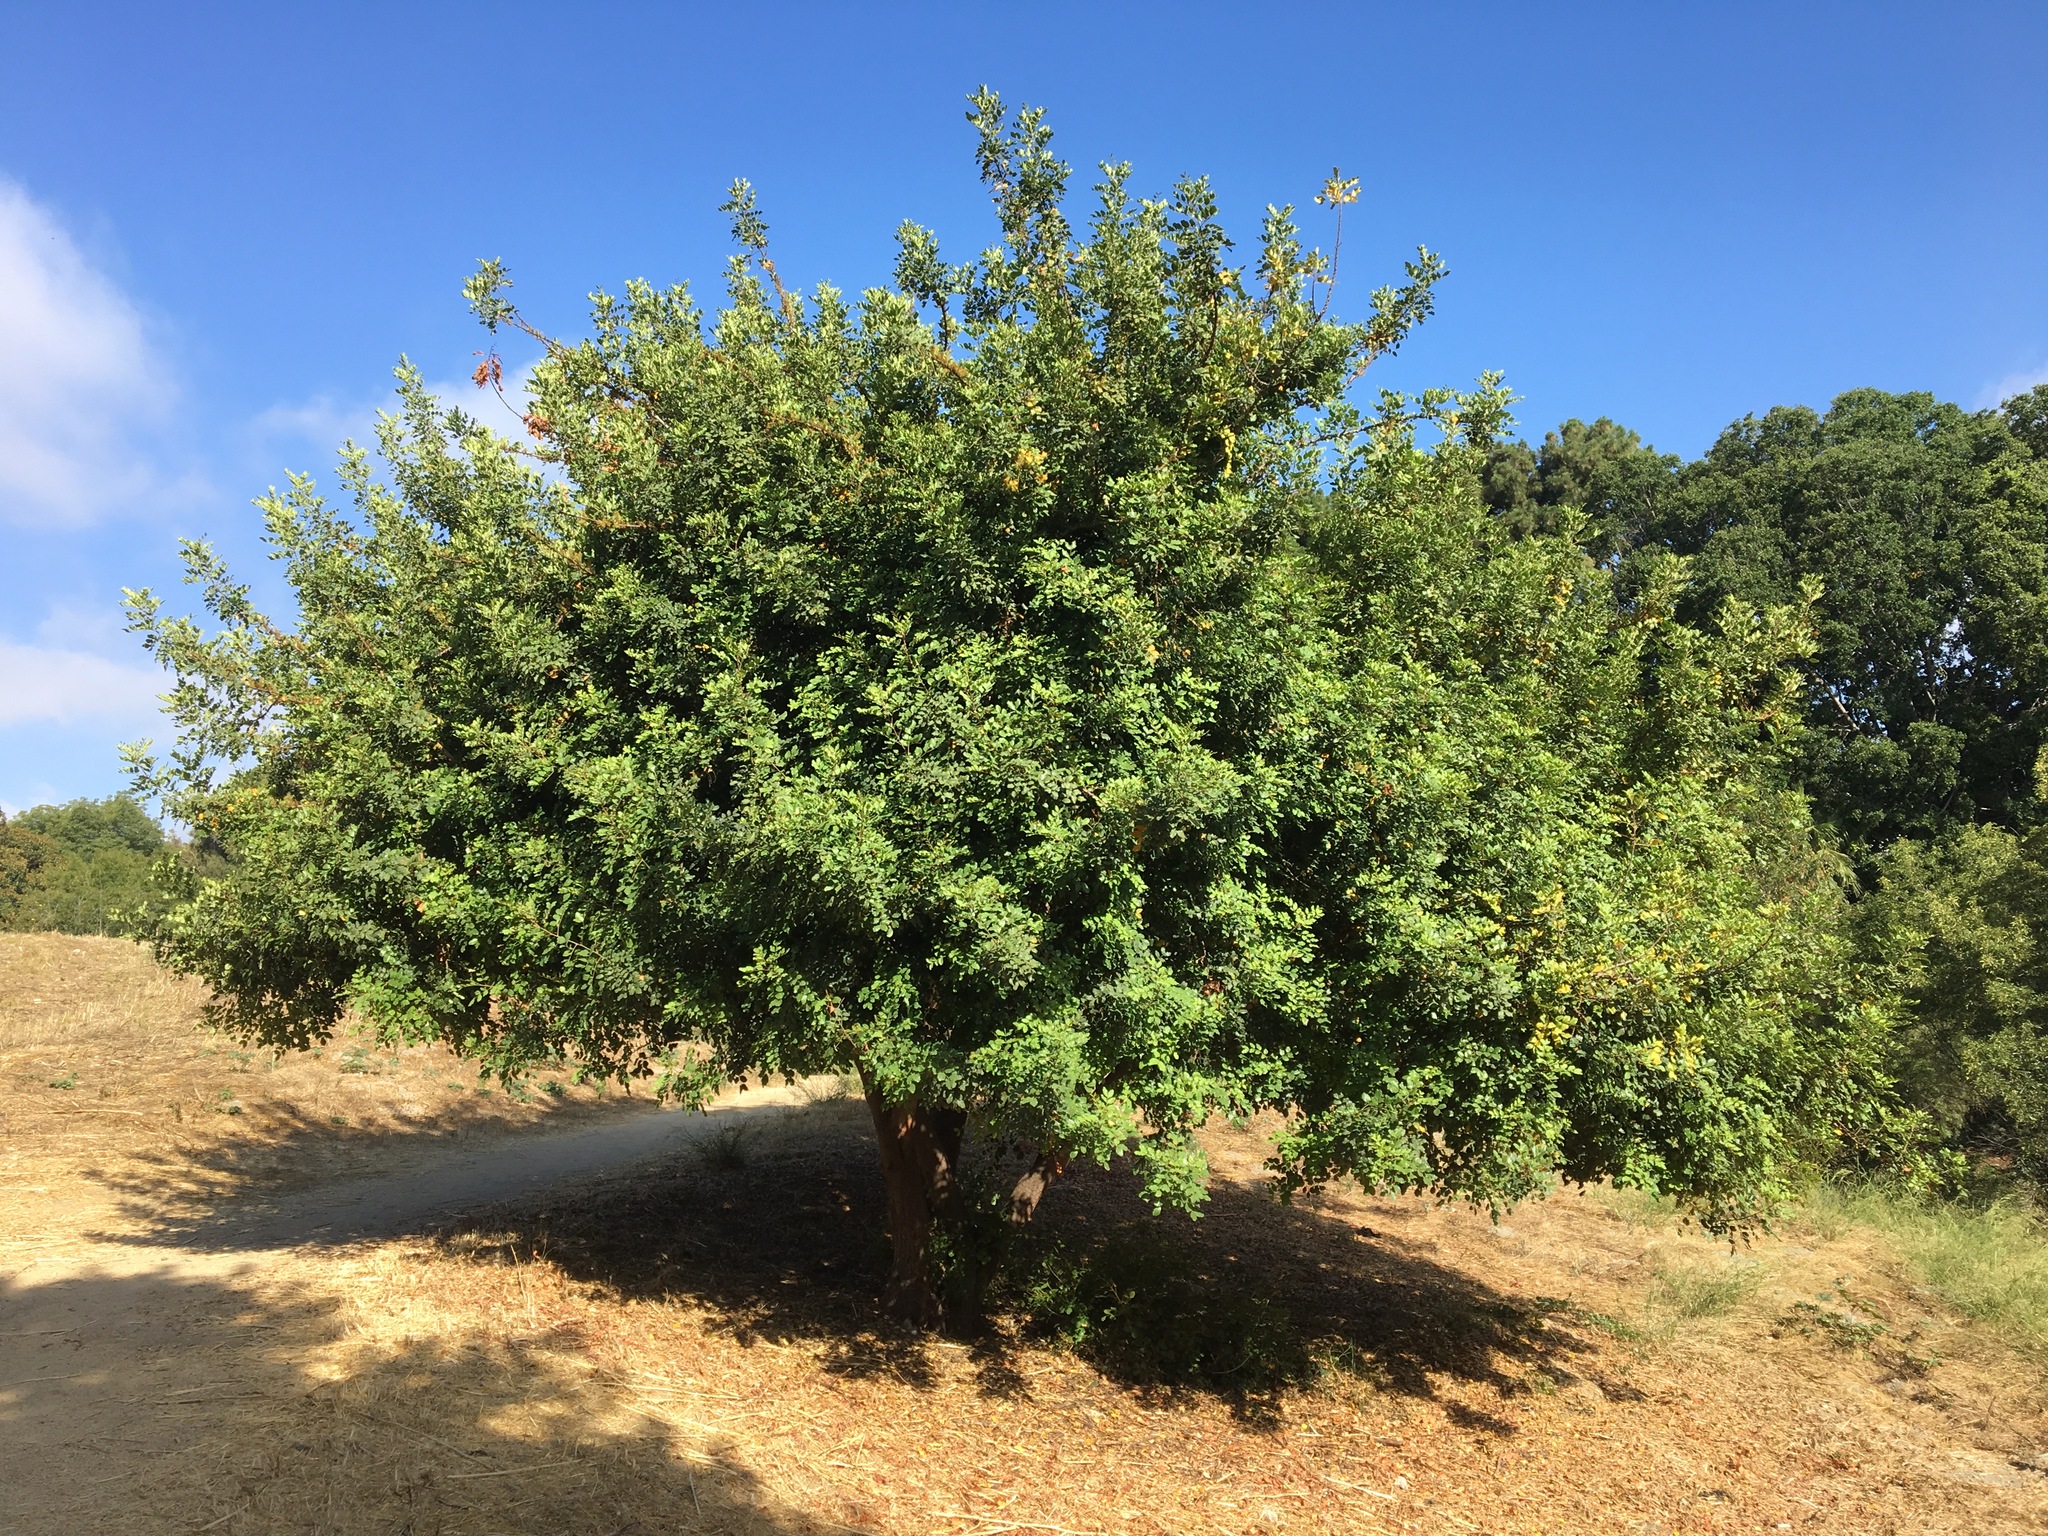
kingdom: Plantae
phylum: Tracheophyta
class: Magnoliopsida
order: Fabales
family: Fabaceae
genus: Ceratonia
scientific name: Ceratonia siliqua
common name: Carob
